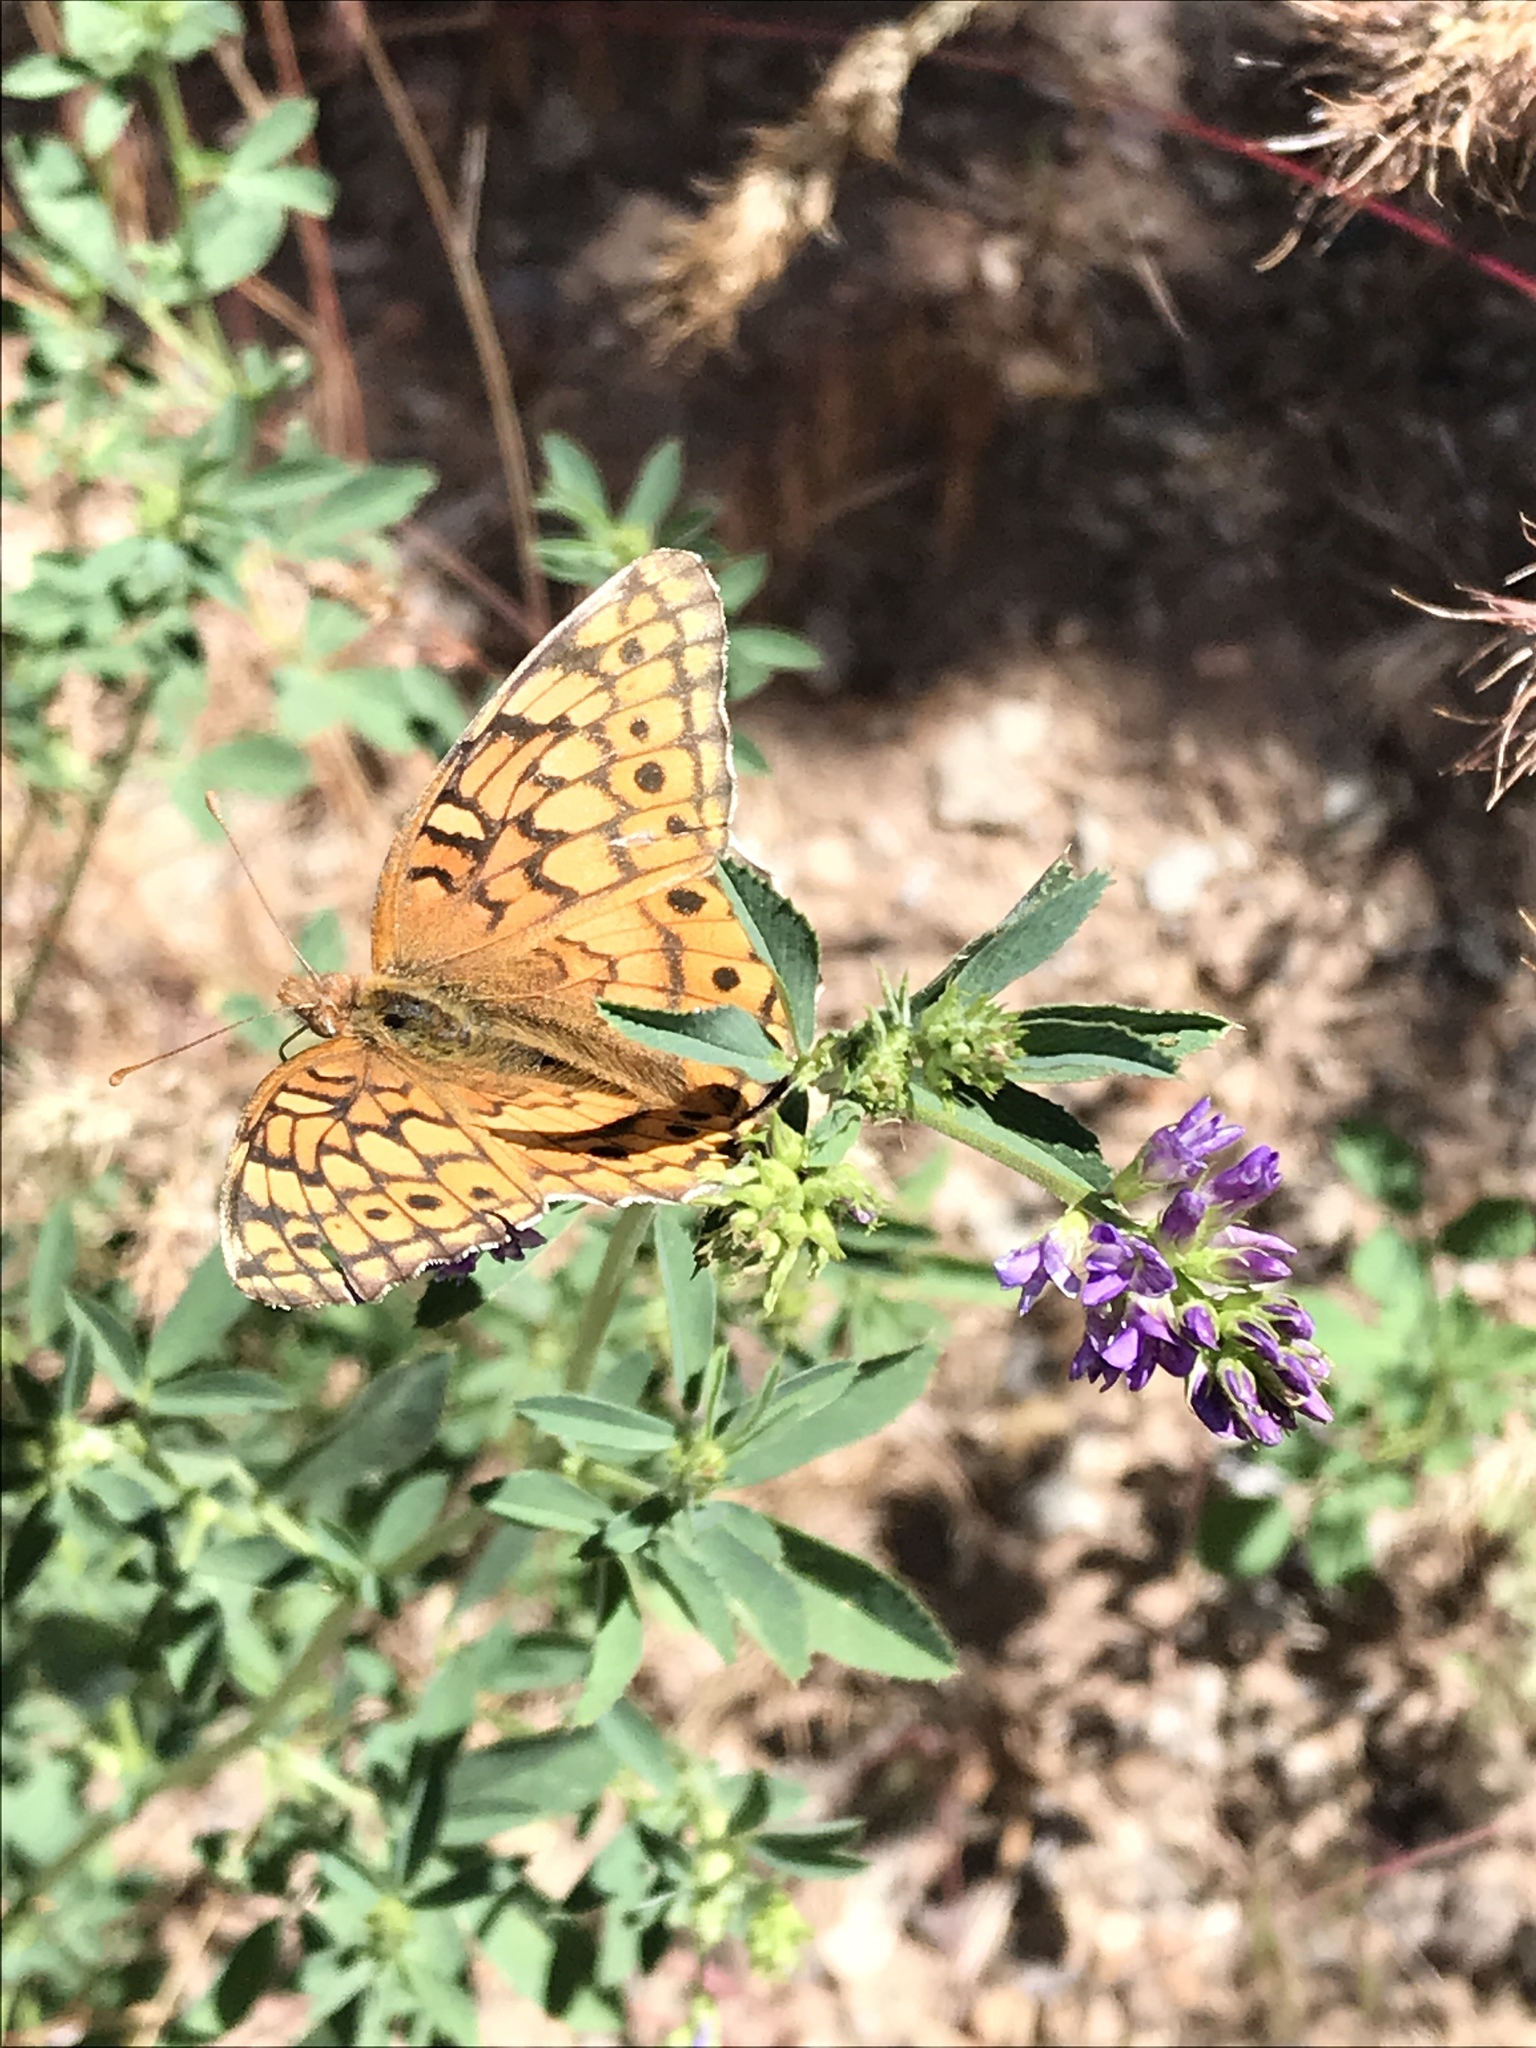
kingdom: Animalia
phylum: Arthropoda
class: Insecta
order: Lepidoptera
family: Nymphalidae
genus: Euptoieta
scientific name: Euptoieta claudia
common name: Variegated fritillary
